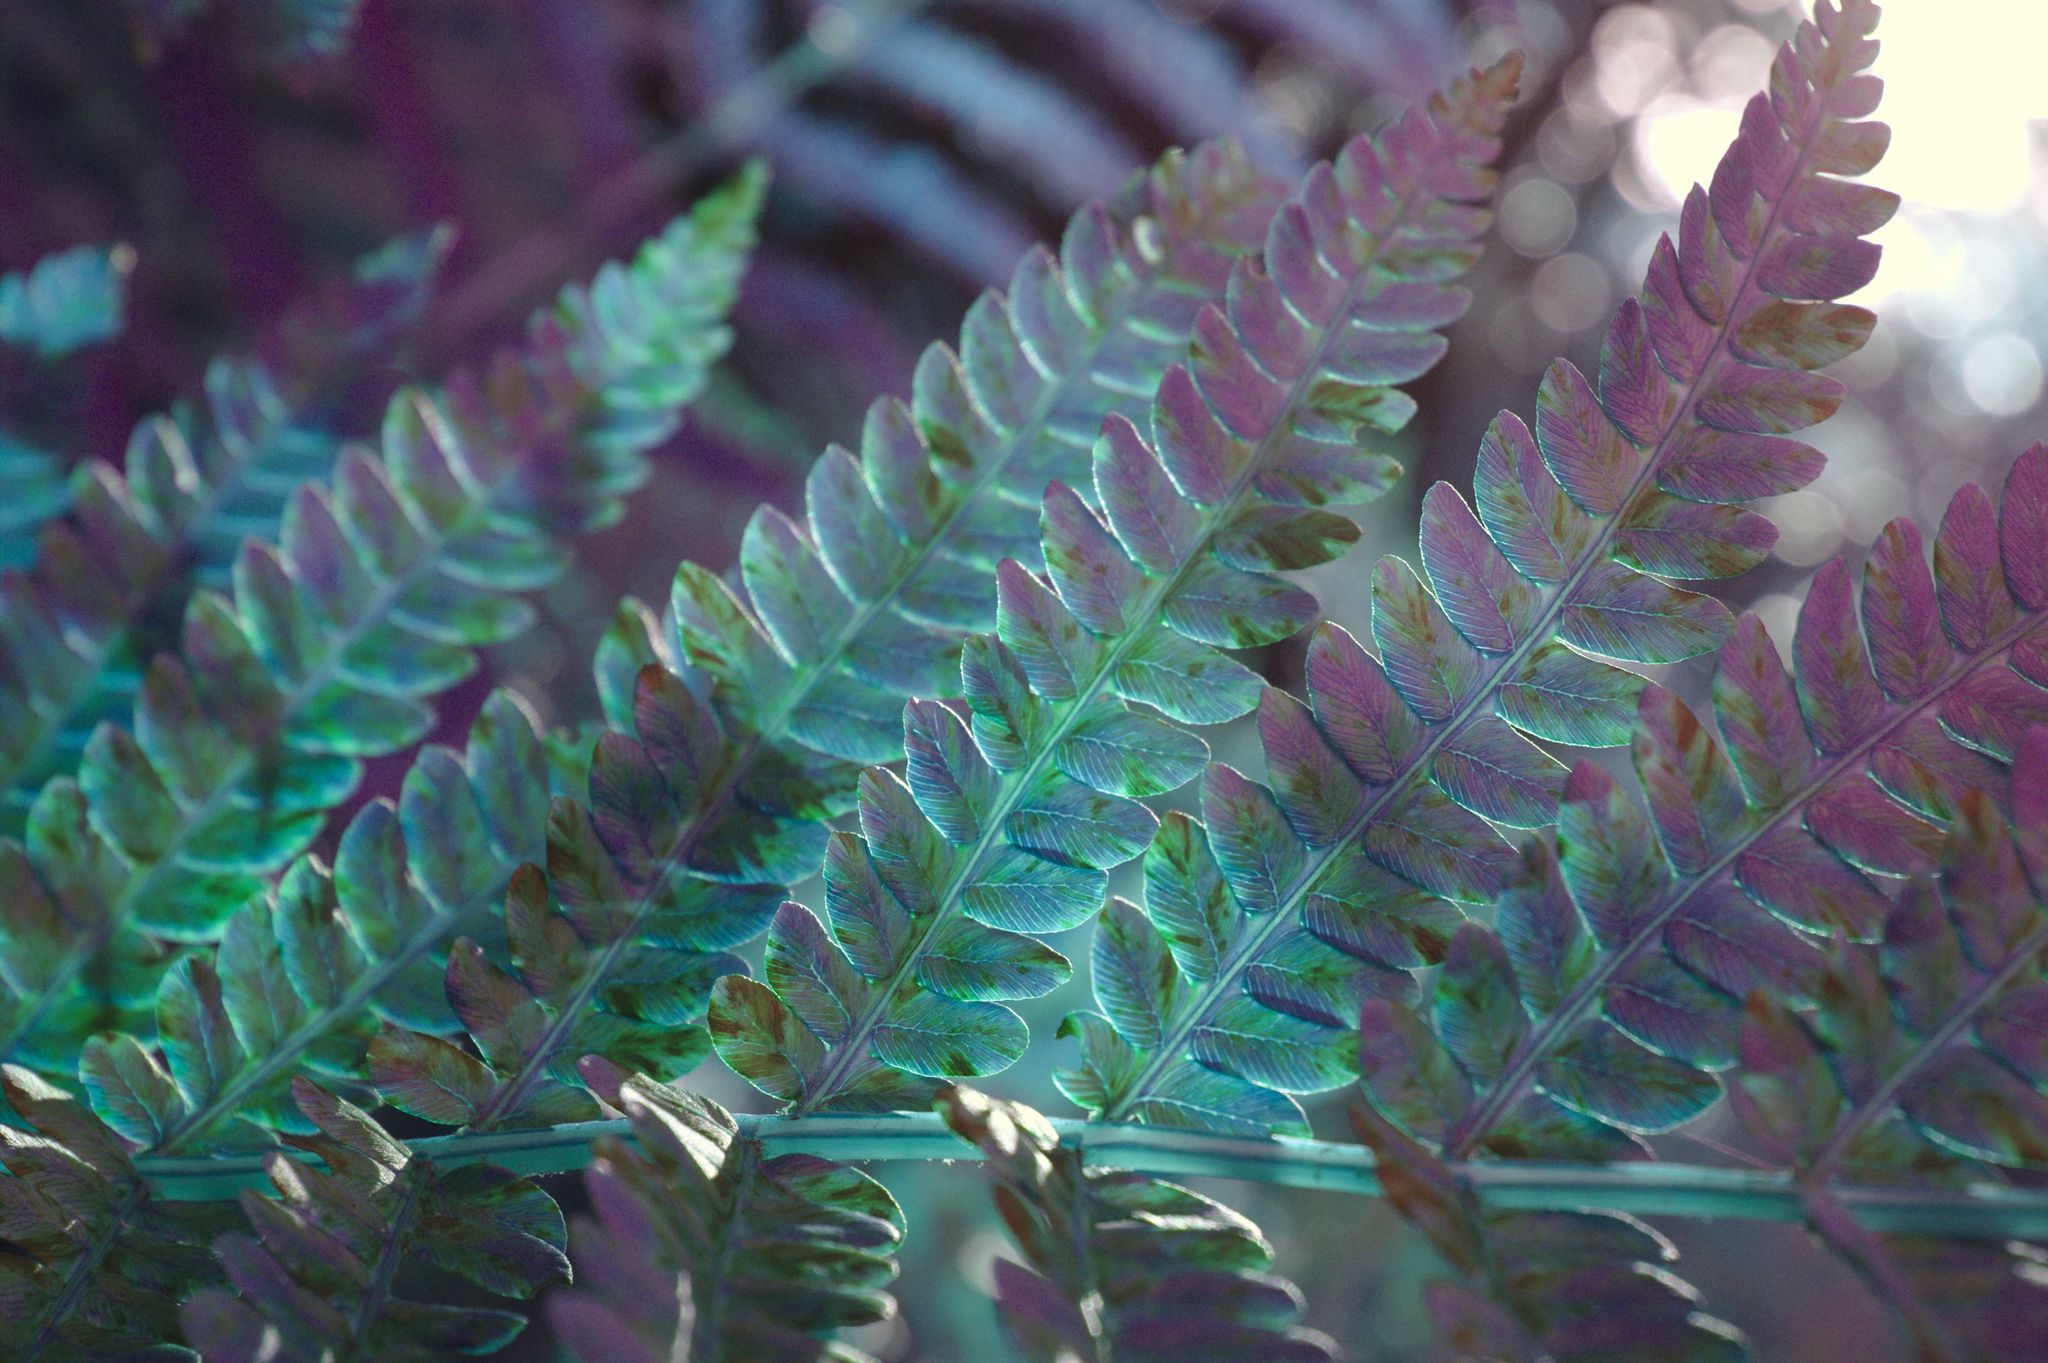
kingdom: Plantae
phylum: Tracheophyta
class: Polypodiopsida
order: Osmundales
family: Osmundaceae
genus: Osmundastrum
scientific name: Osmundastrum cinnamomeum
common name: Cinnamon fern
